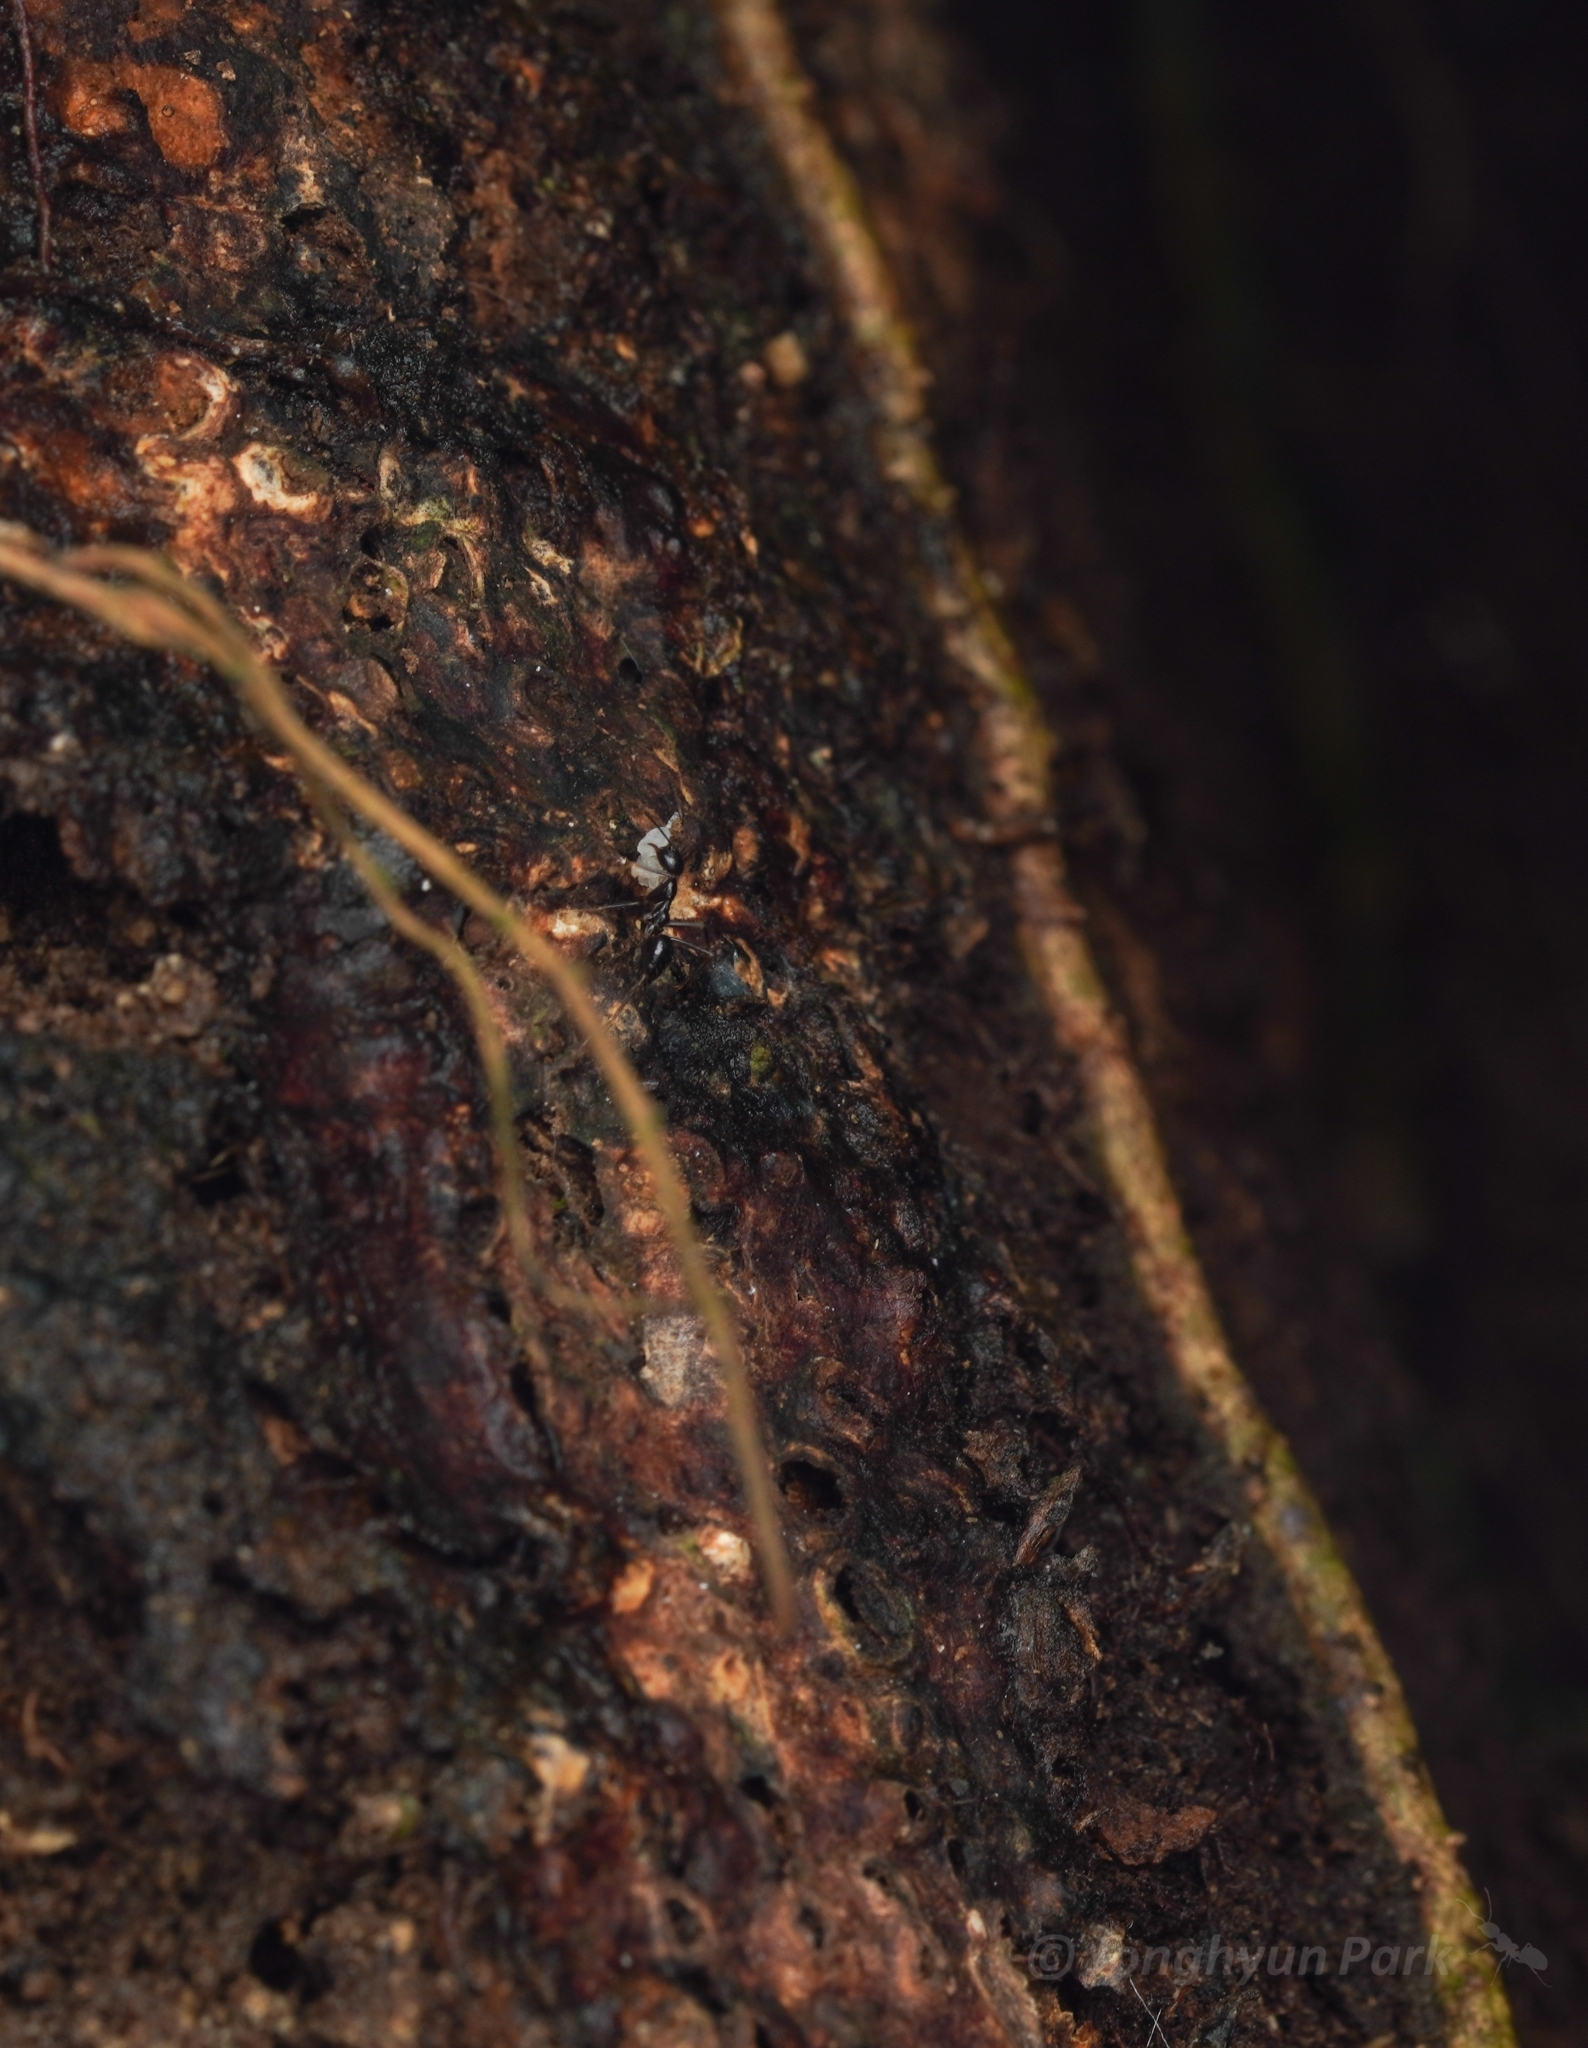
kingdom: Animalia
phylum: Arthropoda
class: Insecta
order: Hymenoptera
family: Formicidae
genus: Euprenolepis
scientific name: Euprenolepis procera
